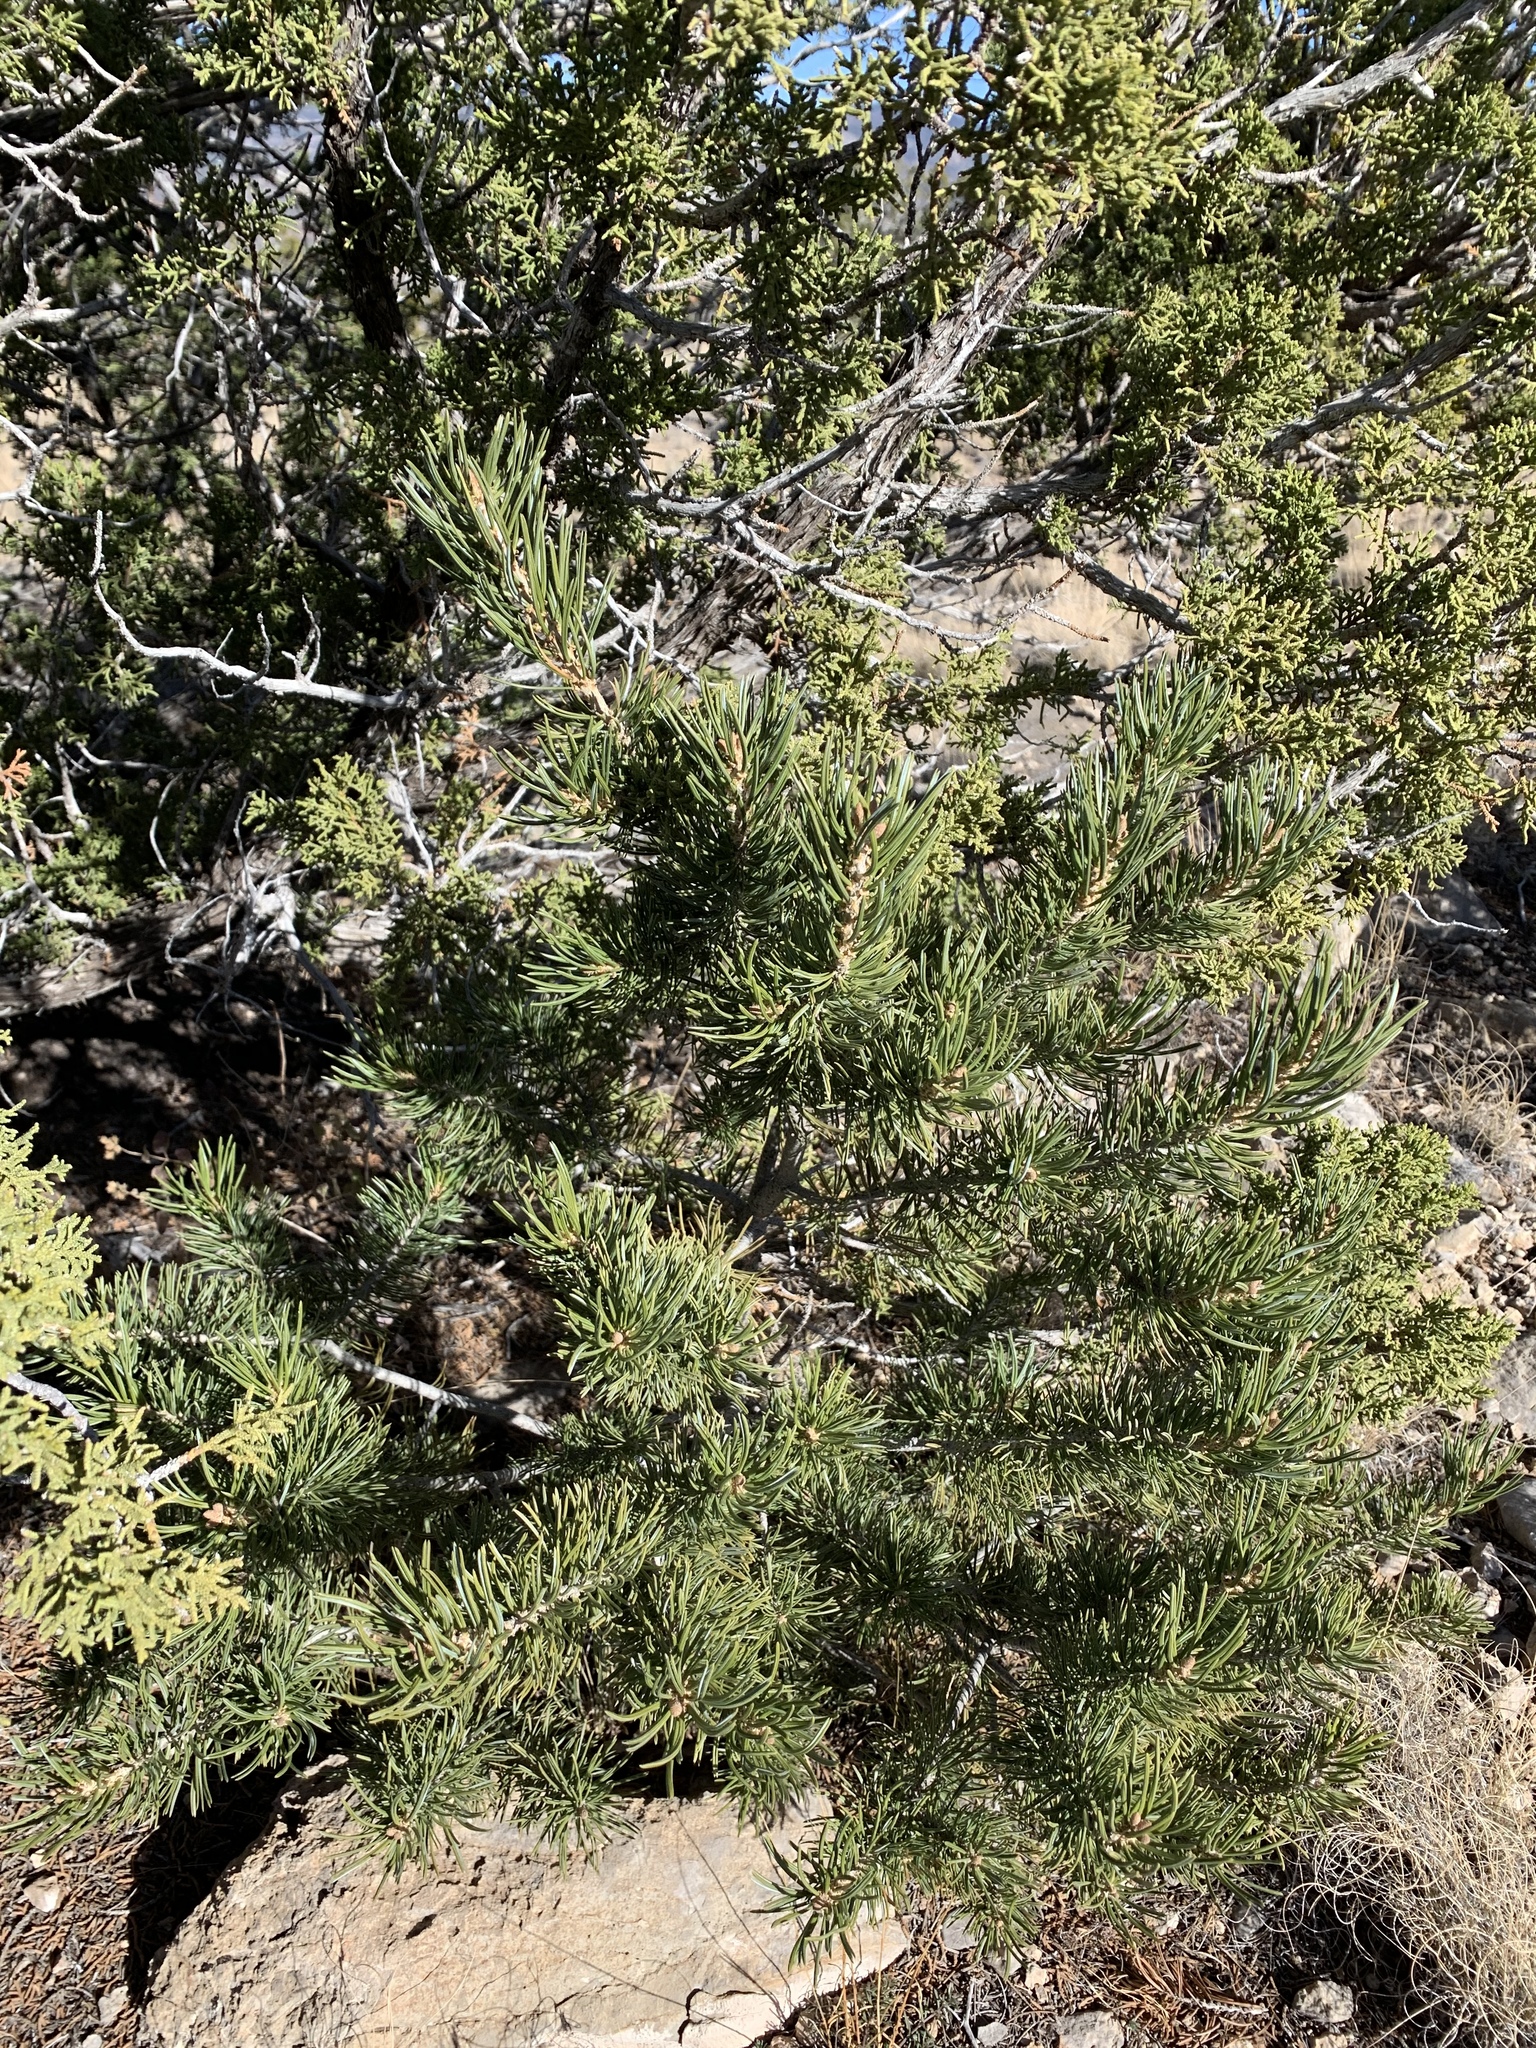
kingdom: Plantae
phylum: Tracheophyta
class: Pinopsida
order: Pinales
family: Pinaceae
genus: Pinus
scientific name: Pinus edulis
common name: Colorado pinyon
